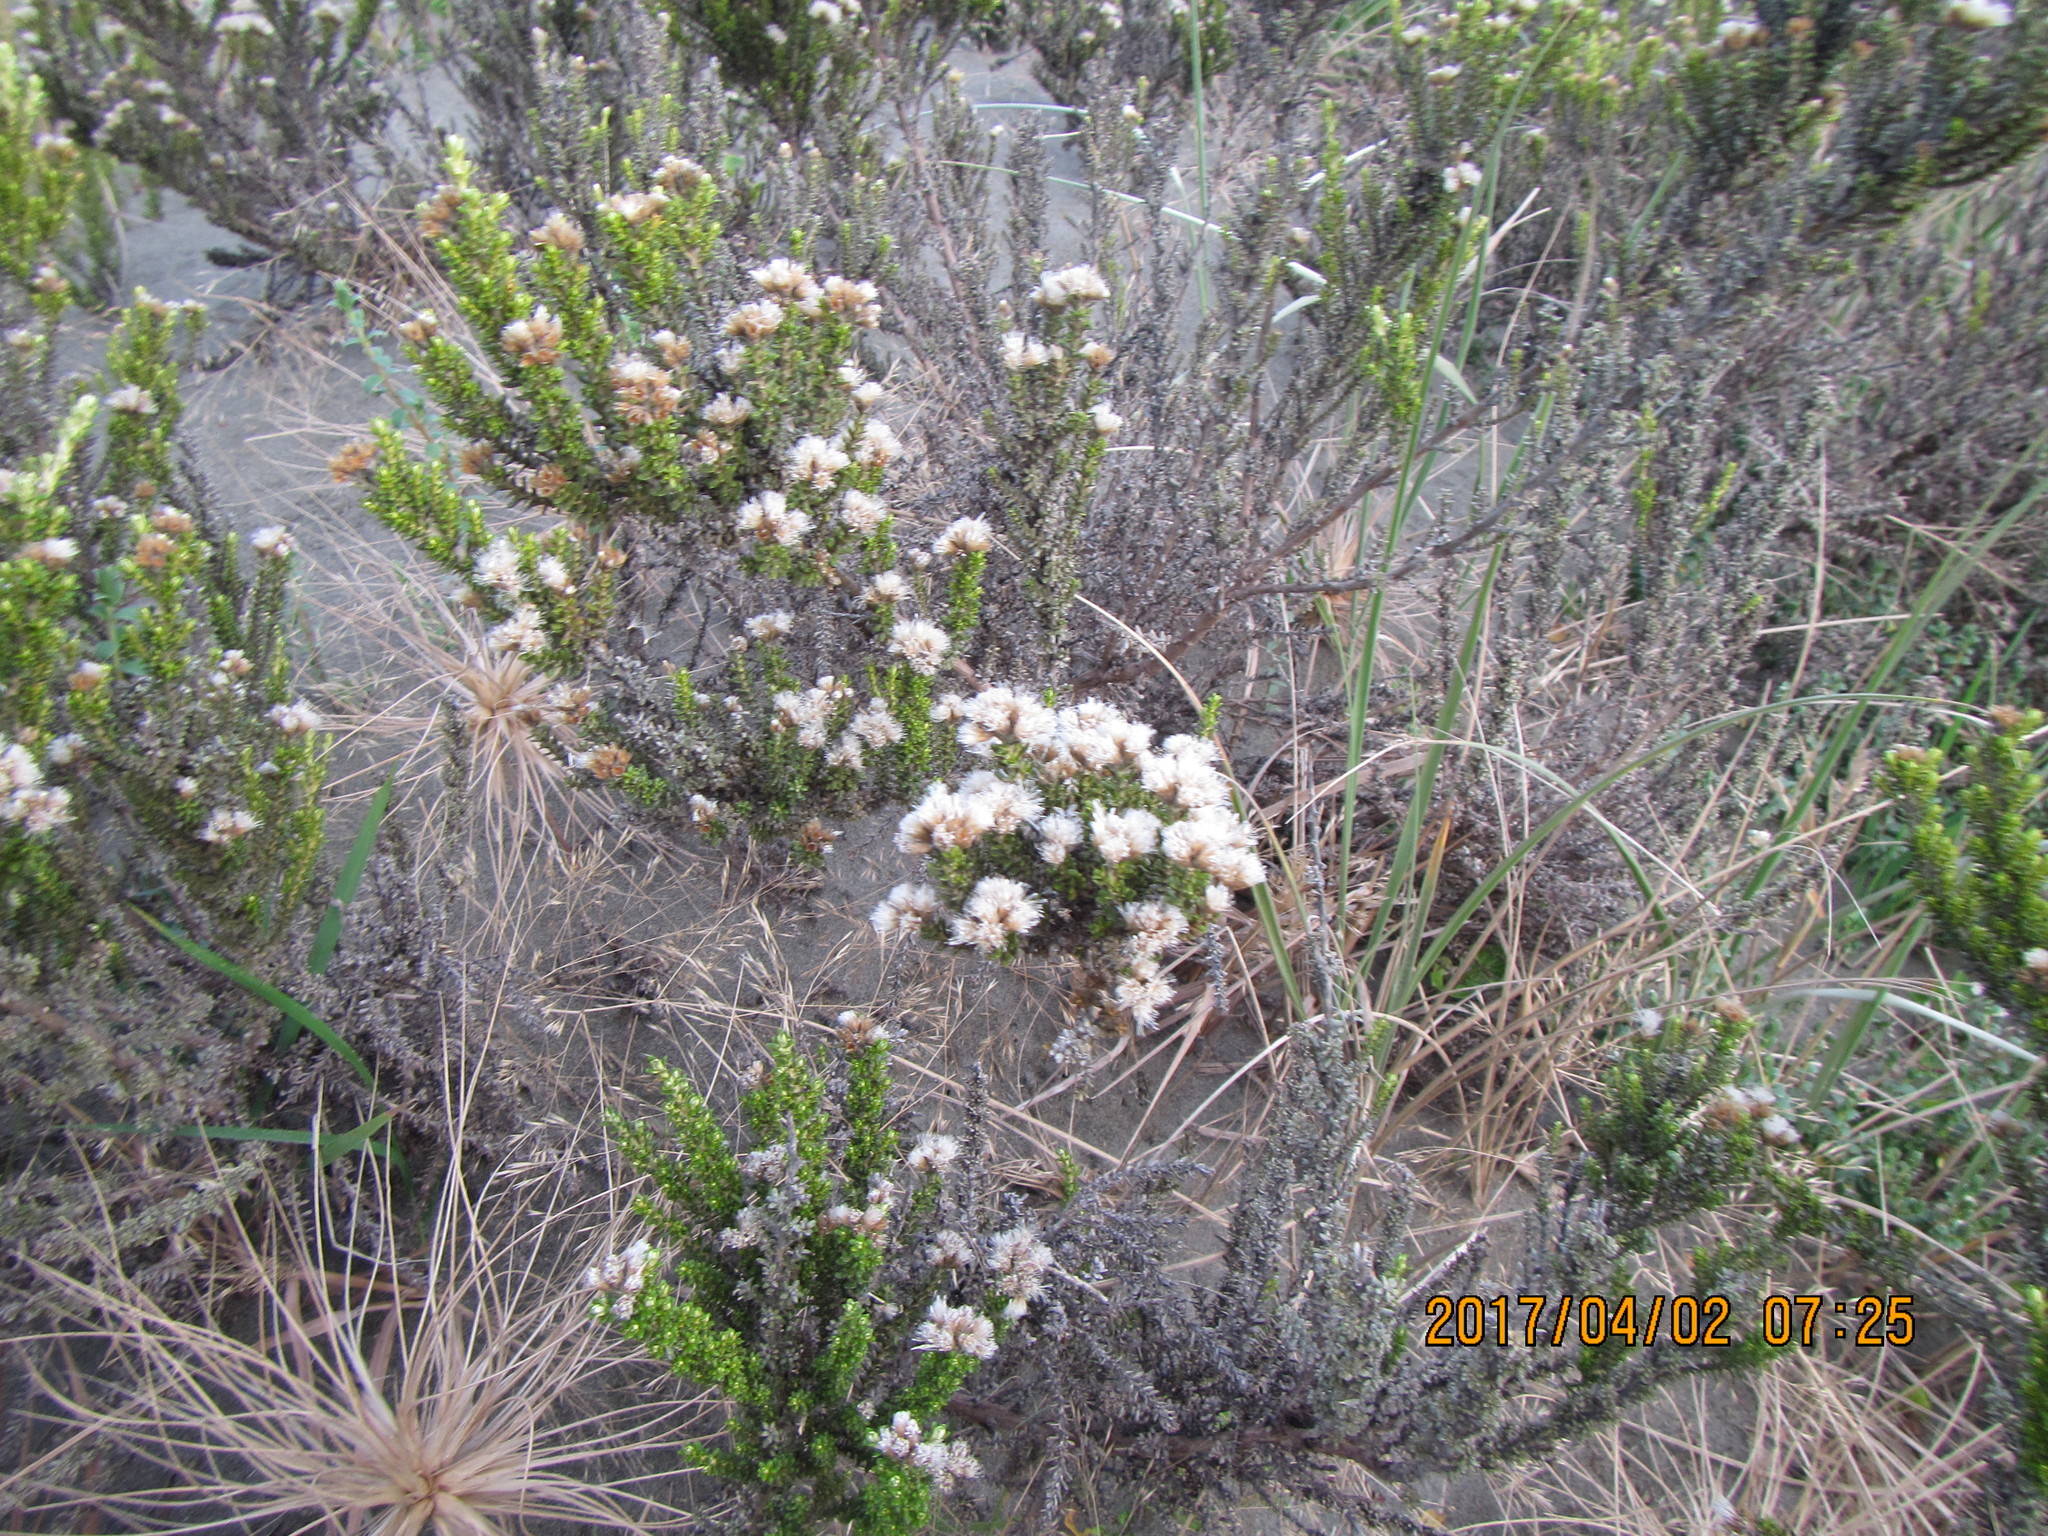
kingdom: Plantae
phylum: Tracheophyta
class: Magnoliopsida
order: Asterales
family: Asteraceae
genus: Ozothamnus
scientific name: Ozothamnus leptophyllus
